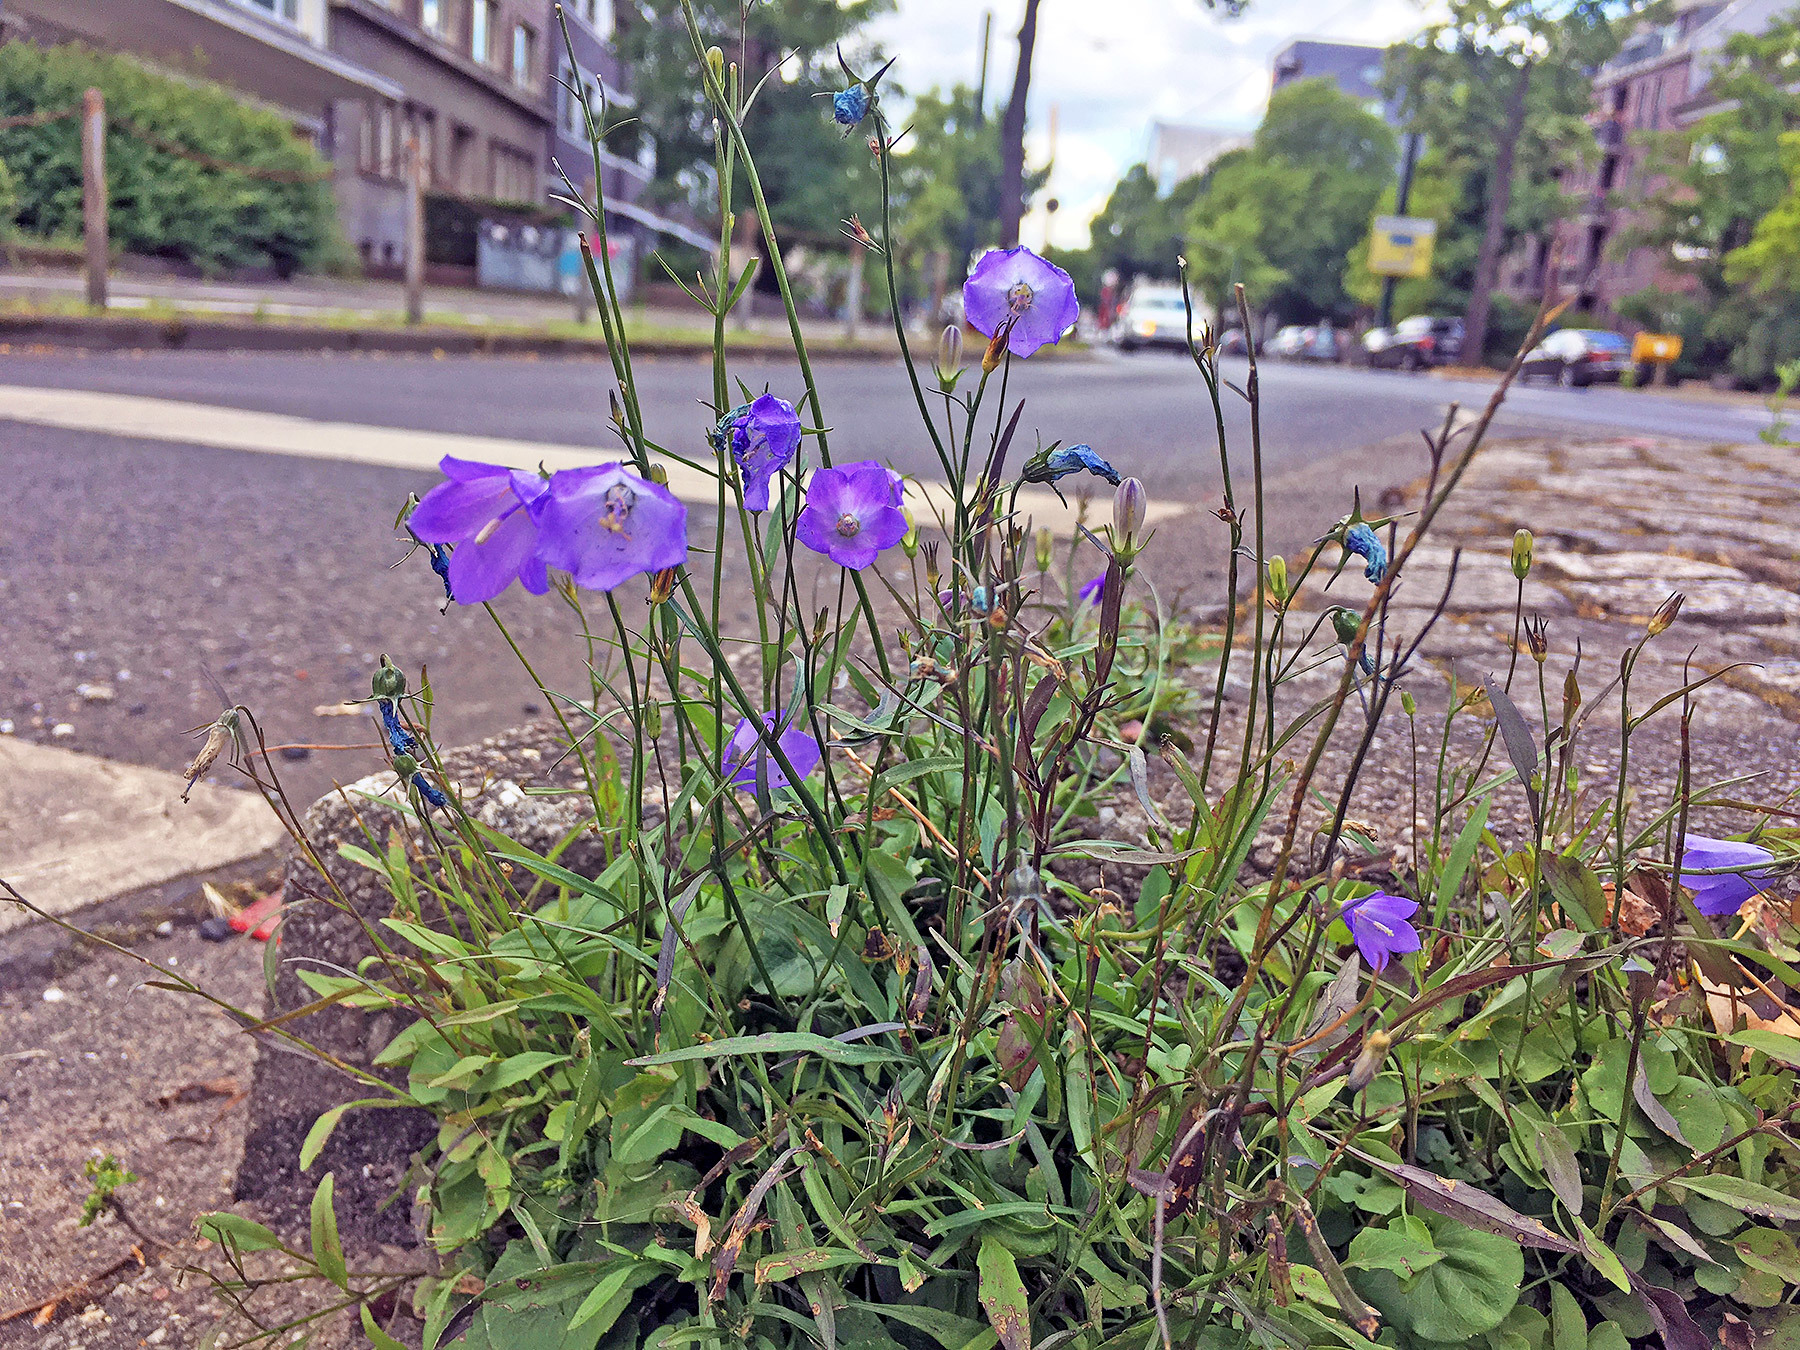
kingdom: Plantae
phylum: Tracheophyta
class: Magnoliopsida
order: Asterales
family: Campanulaceae
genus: Campanula
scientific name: Campanula persicifolia
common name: Peach-leaved bellflower
